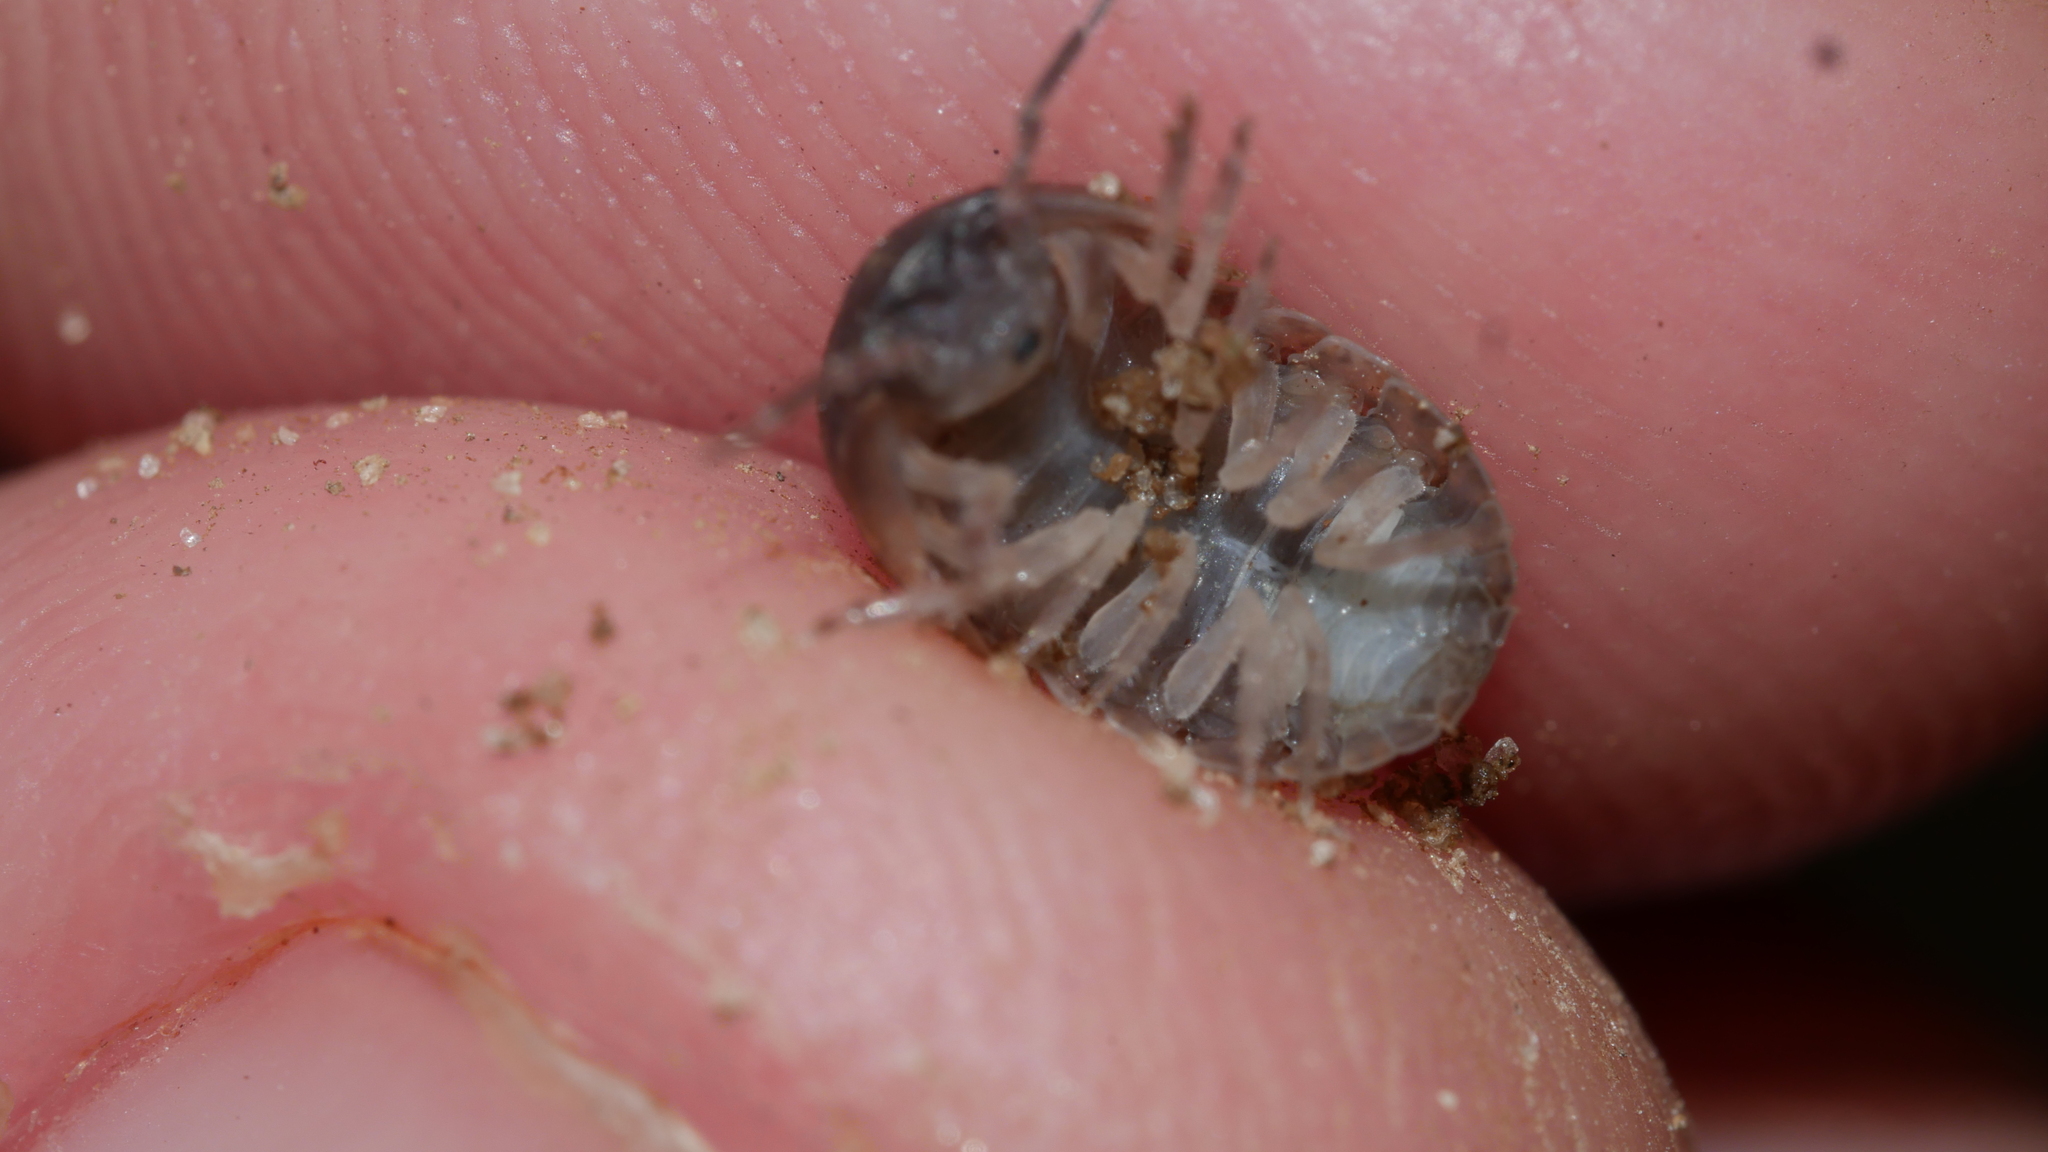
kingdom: Animalia
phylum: Arthropoda
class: Malacostraca
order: Isopoda
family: Armadillidiidae
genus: Armadillidium
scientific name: Armadillidium vulgare
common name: Common pill woodlouse
